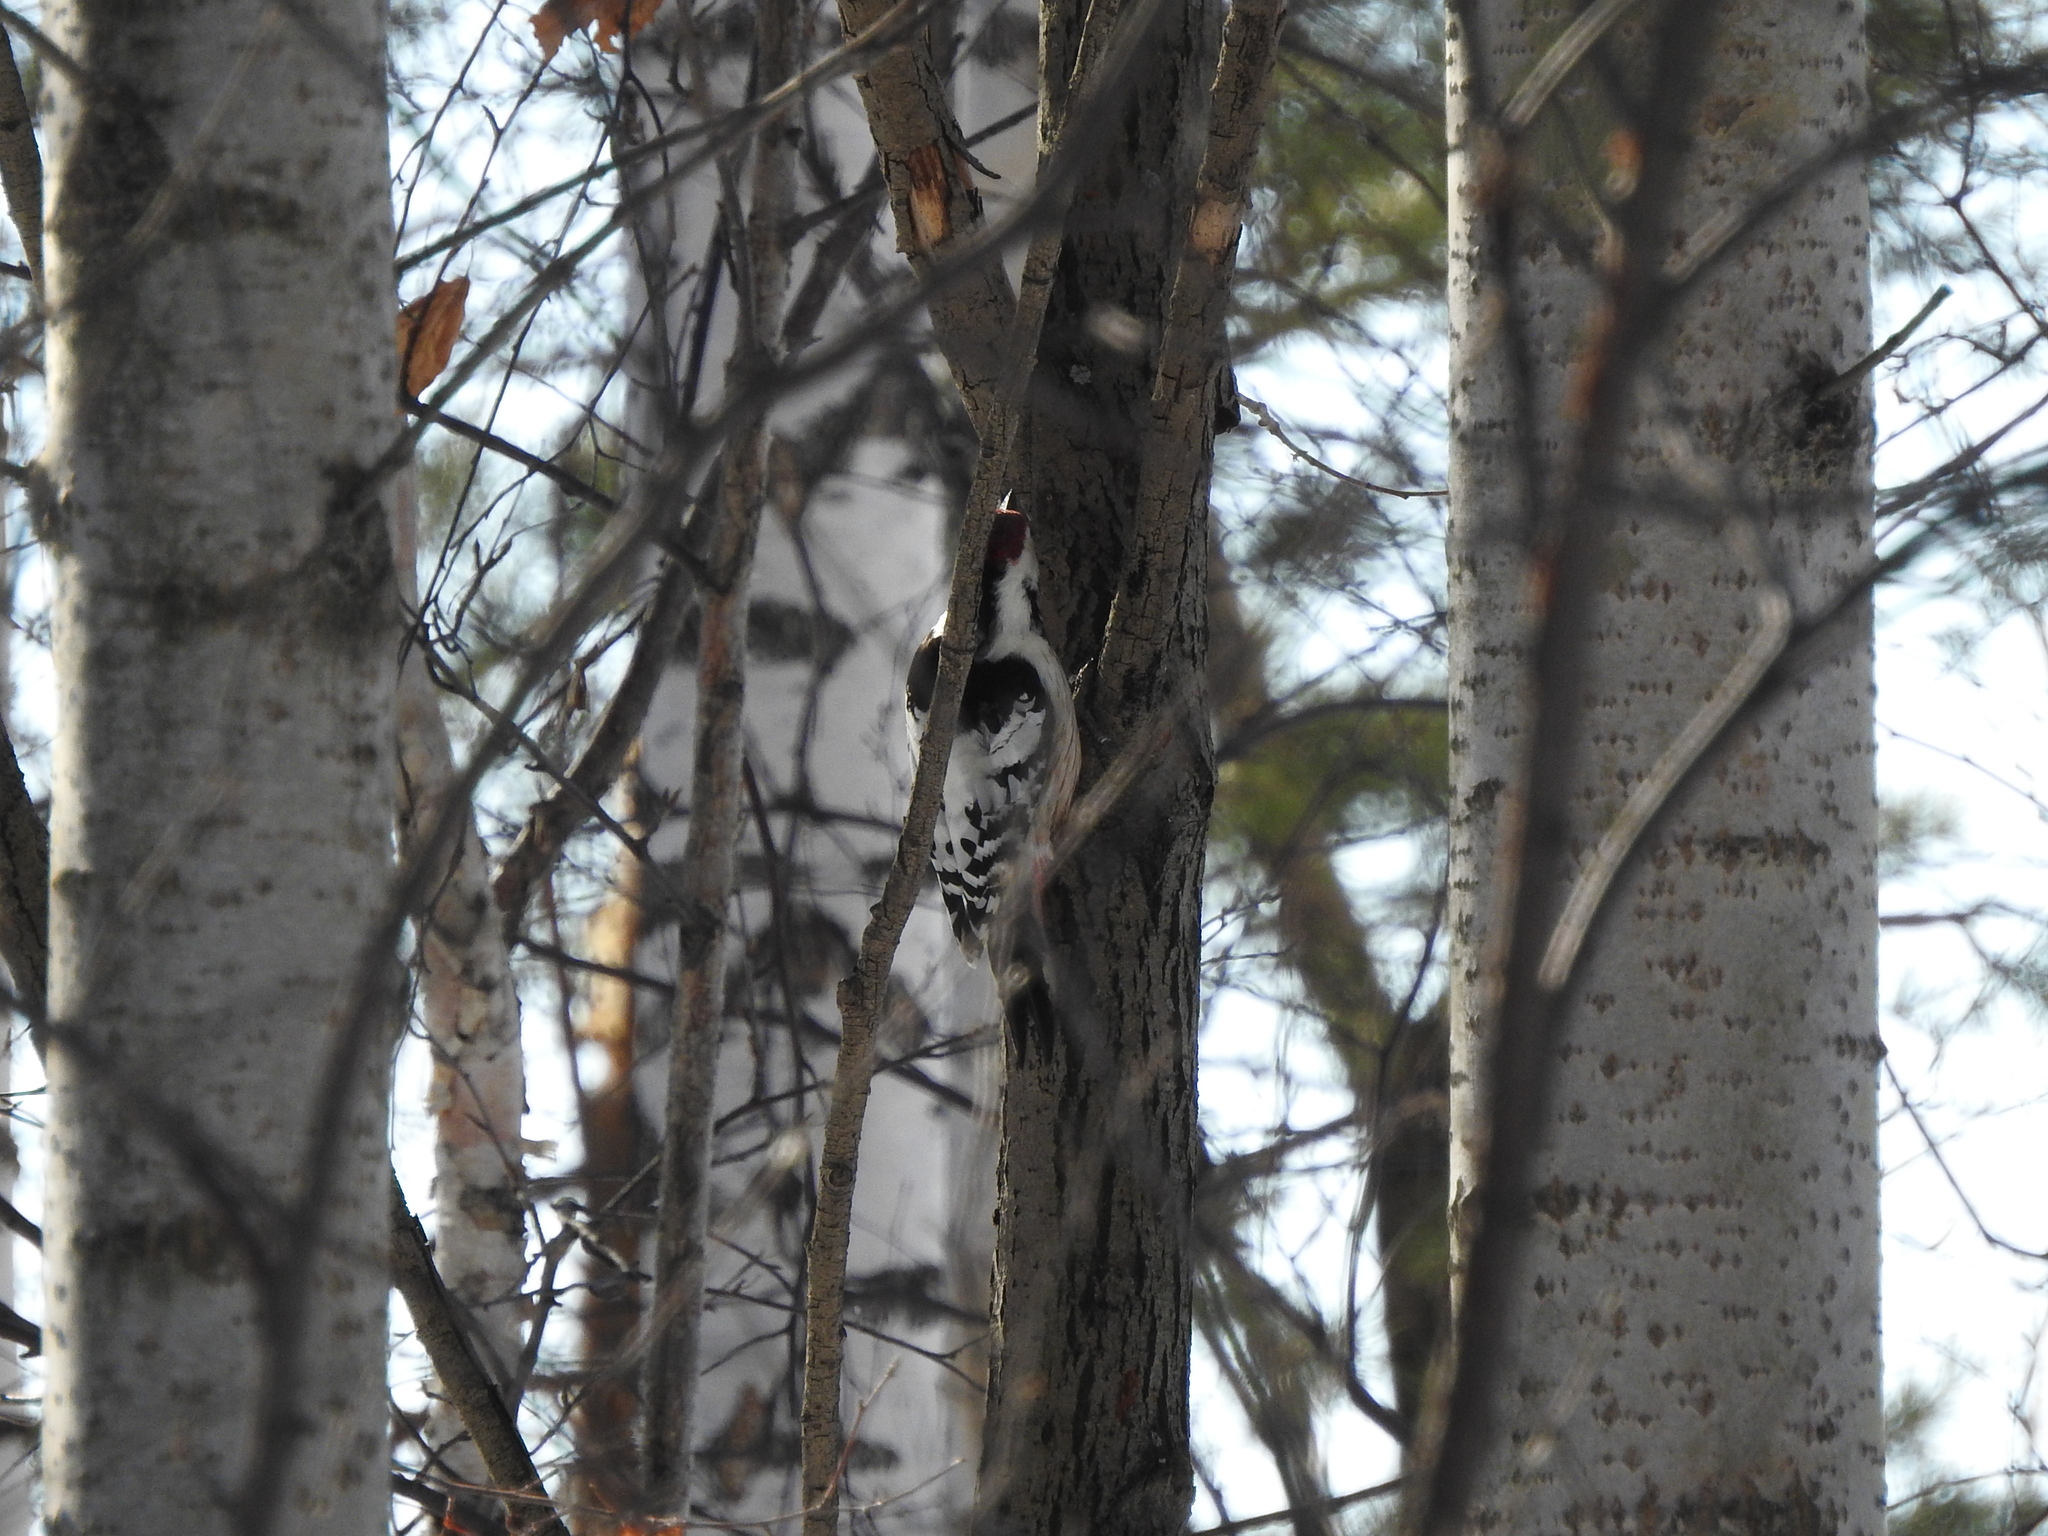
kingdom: Animalia
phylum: Chordata
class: Aves
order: Piciformes
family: Picidae
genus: Dendrocopos
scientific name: Dendrocopos leucotos
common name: White-backed woodpecker
